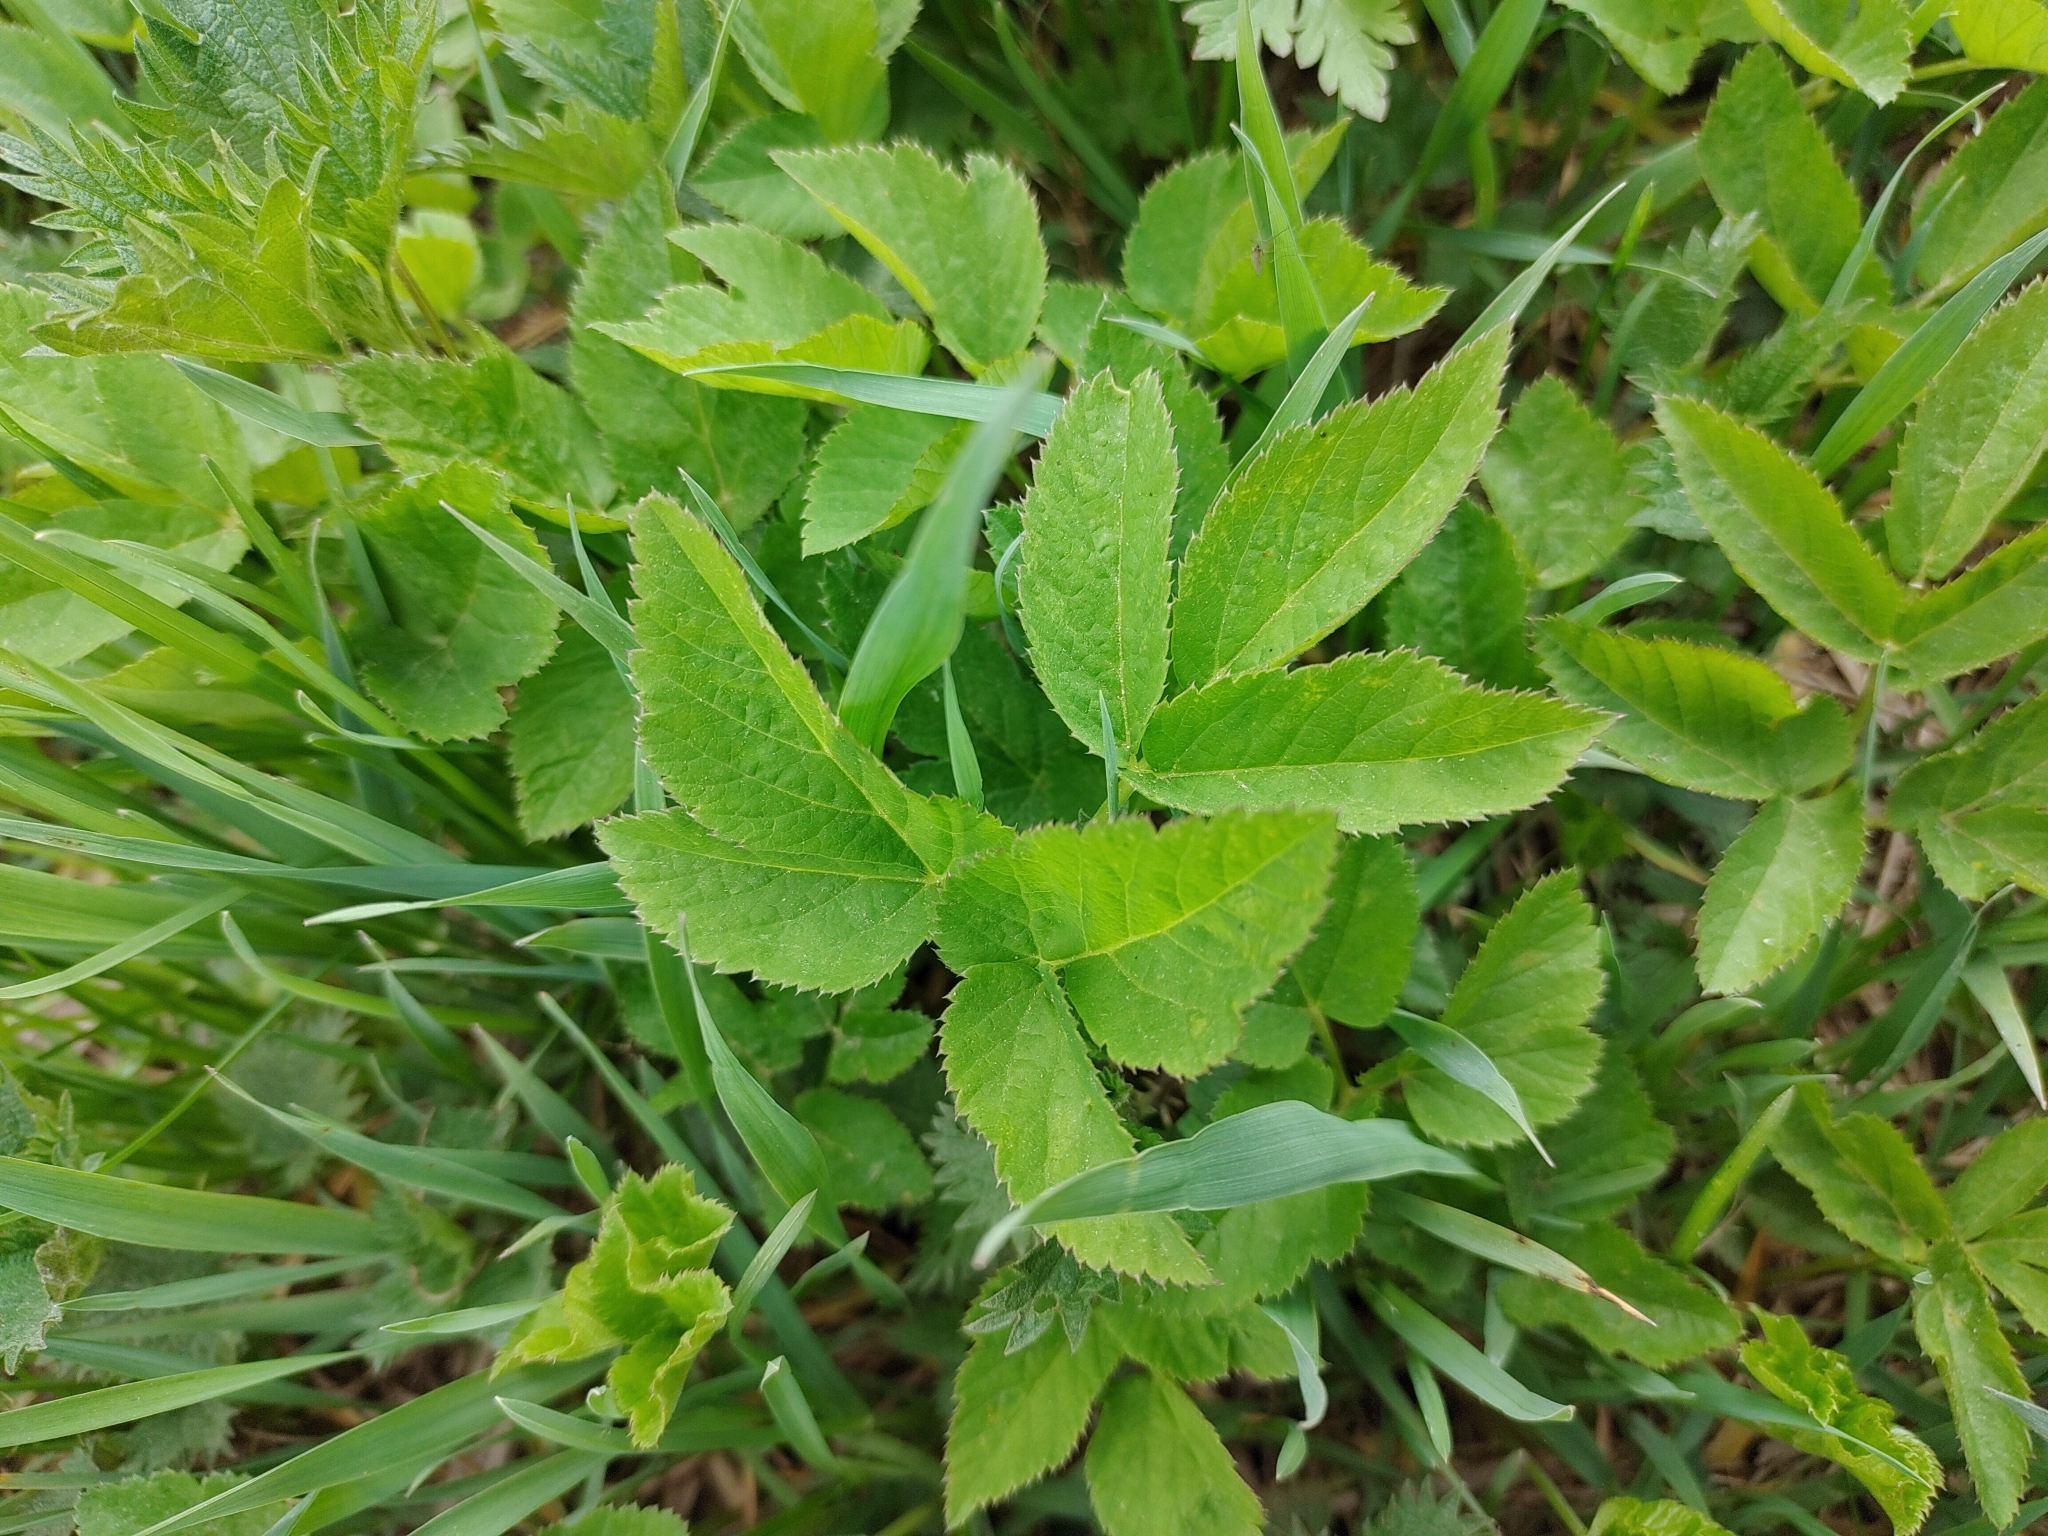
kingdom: Plantae
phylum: Tracheophyta
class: Magnoliopsida
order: Apiales
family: Apiaceae
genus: Aegopodium
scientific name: Aegopodium podagraria
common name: Ground-elder
